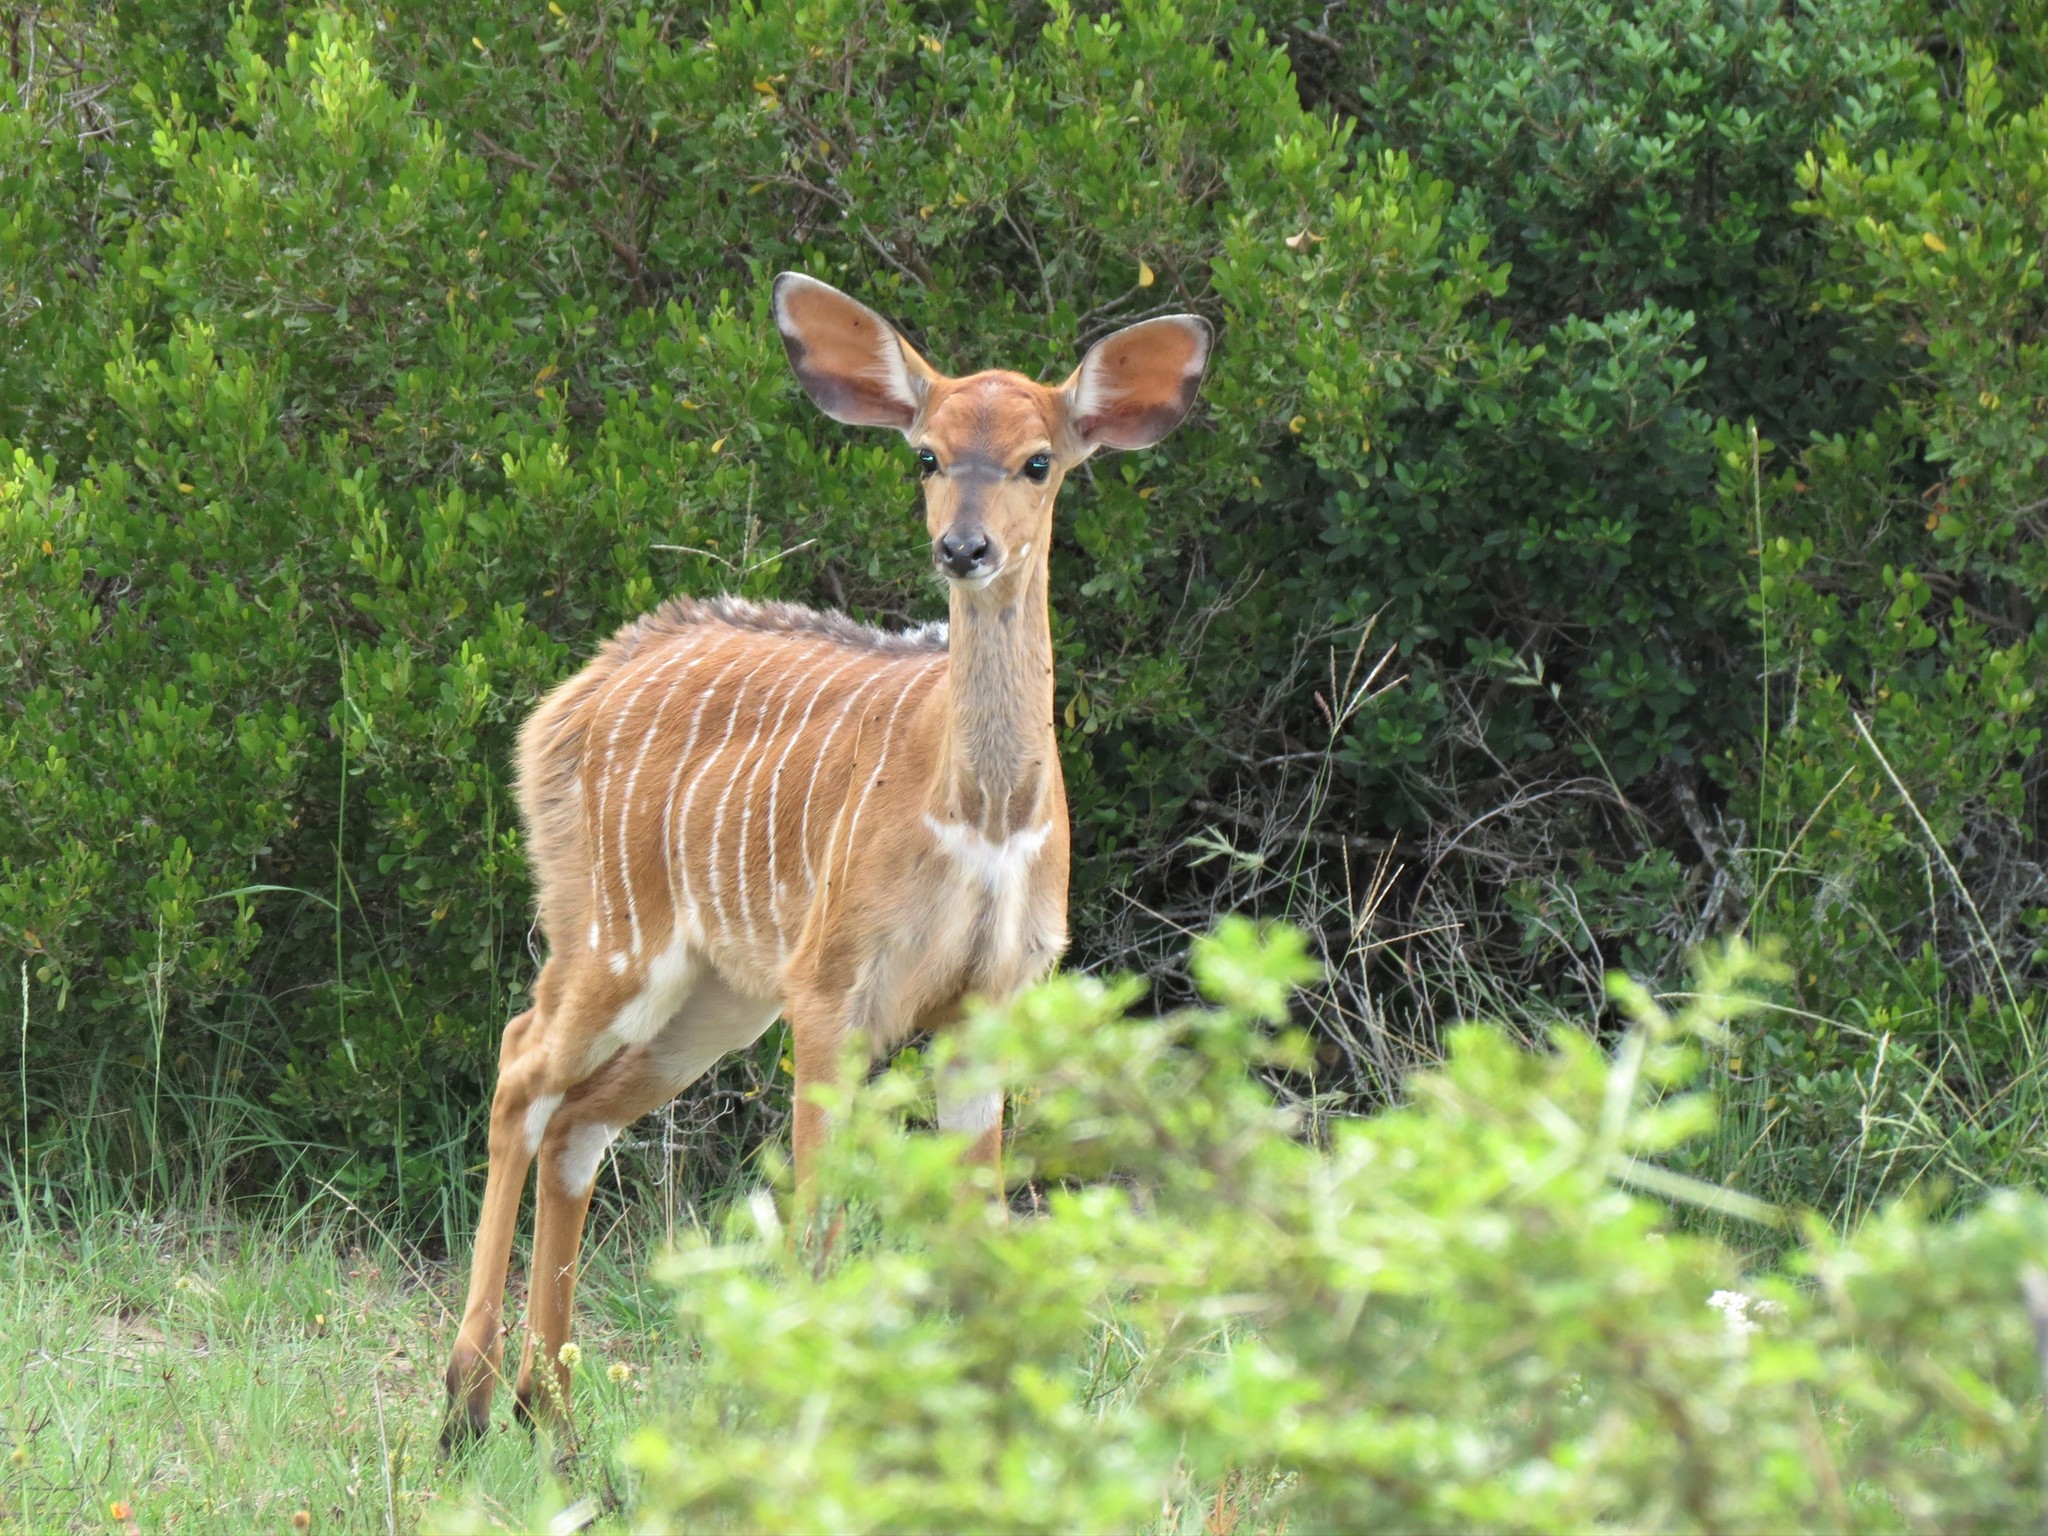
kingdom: Animalia
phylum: Chordata
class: Mammalia
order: Artiodactyla
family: Bovidae
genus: Tragelaphus
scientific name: Tragelaphus angasii
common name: Nyala
